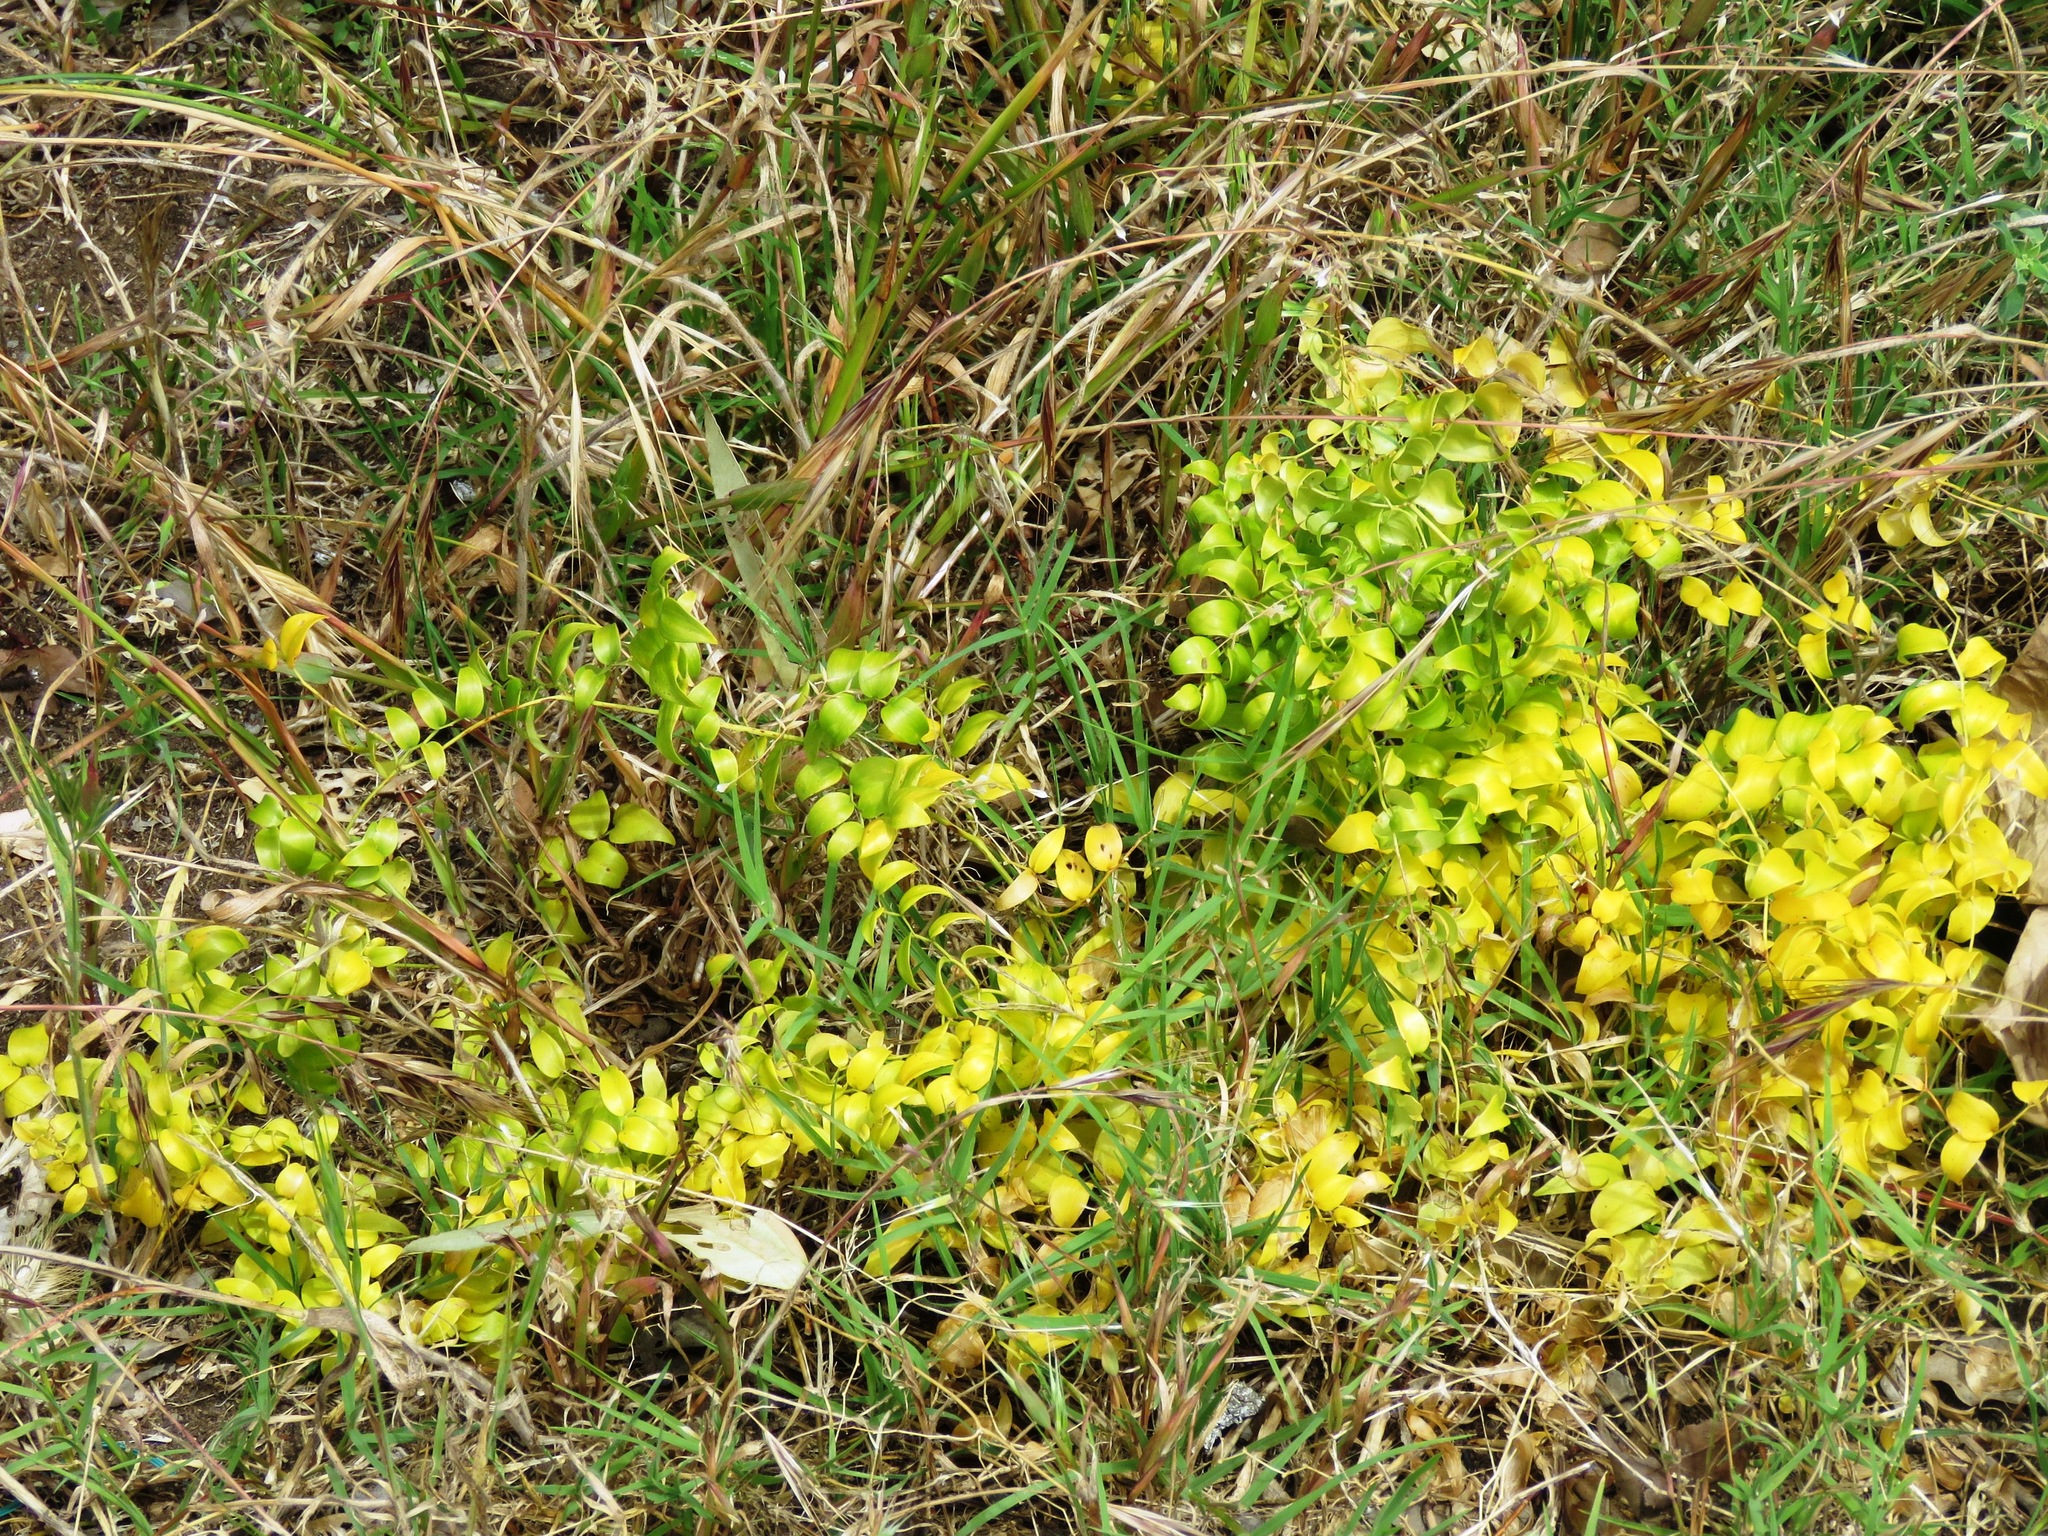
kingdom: Plantae
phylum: Tracheophyta
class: Liliopsida
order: Asparagales
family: Asparagaceae
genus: Asparagus
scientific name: Asparagus asparagoides
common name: African asparagus fern
